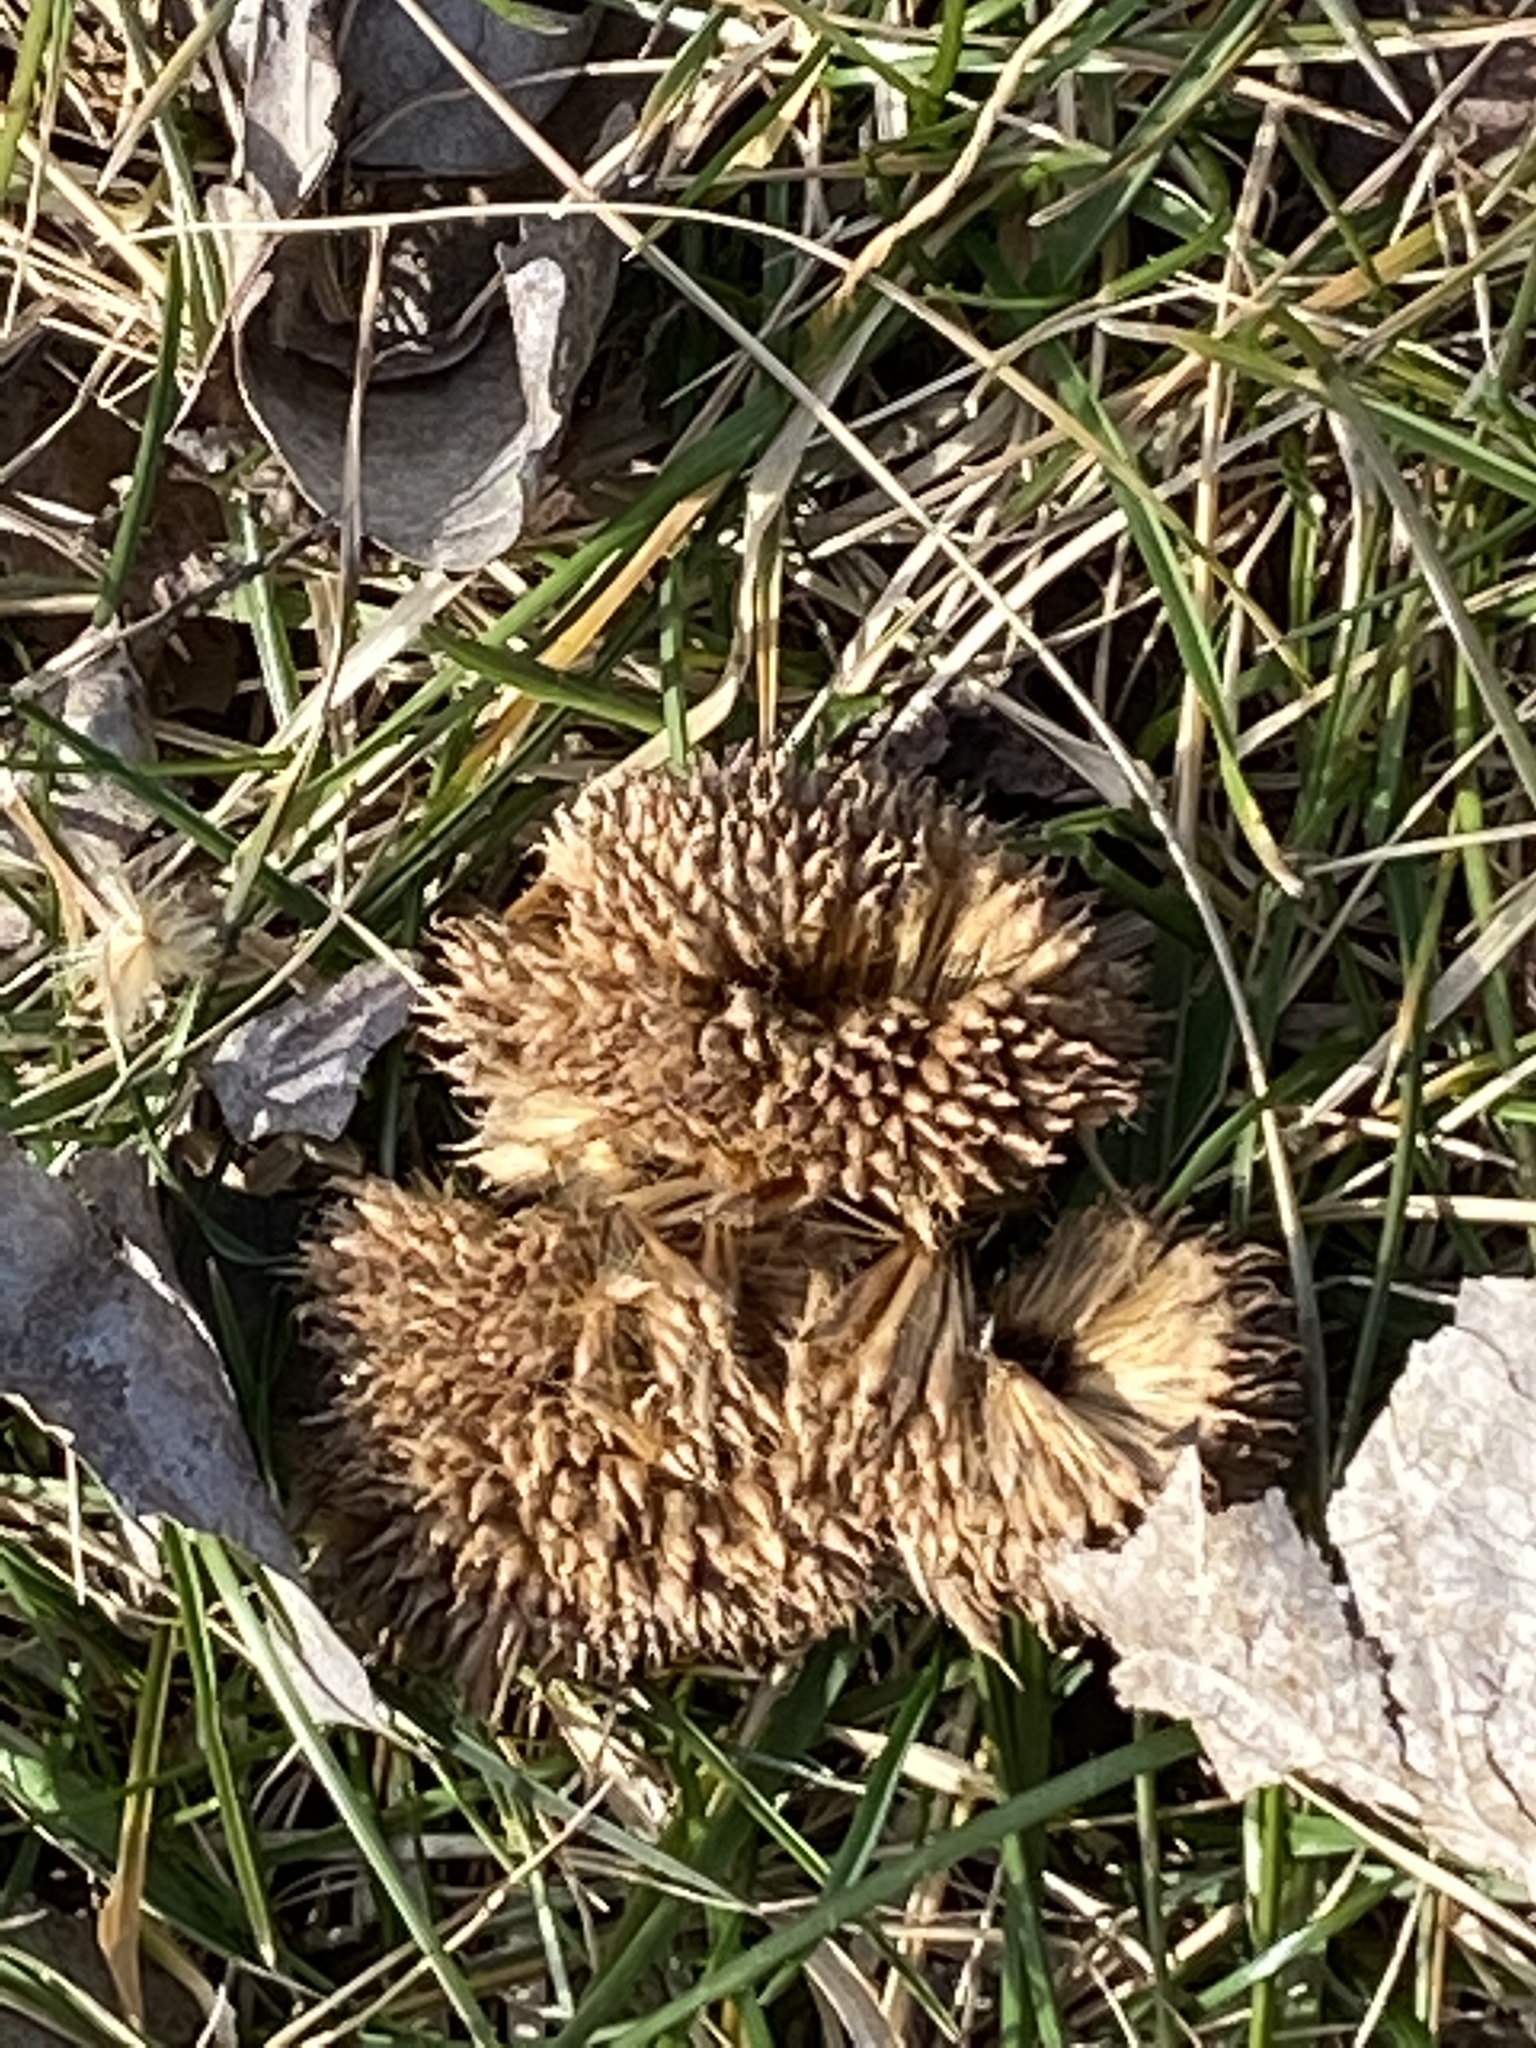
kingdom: Plantae
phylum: Tracheophyta
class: Magnoliopsida
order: Proteales
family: Platanaceae
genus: Platanus
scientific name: Platanus
